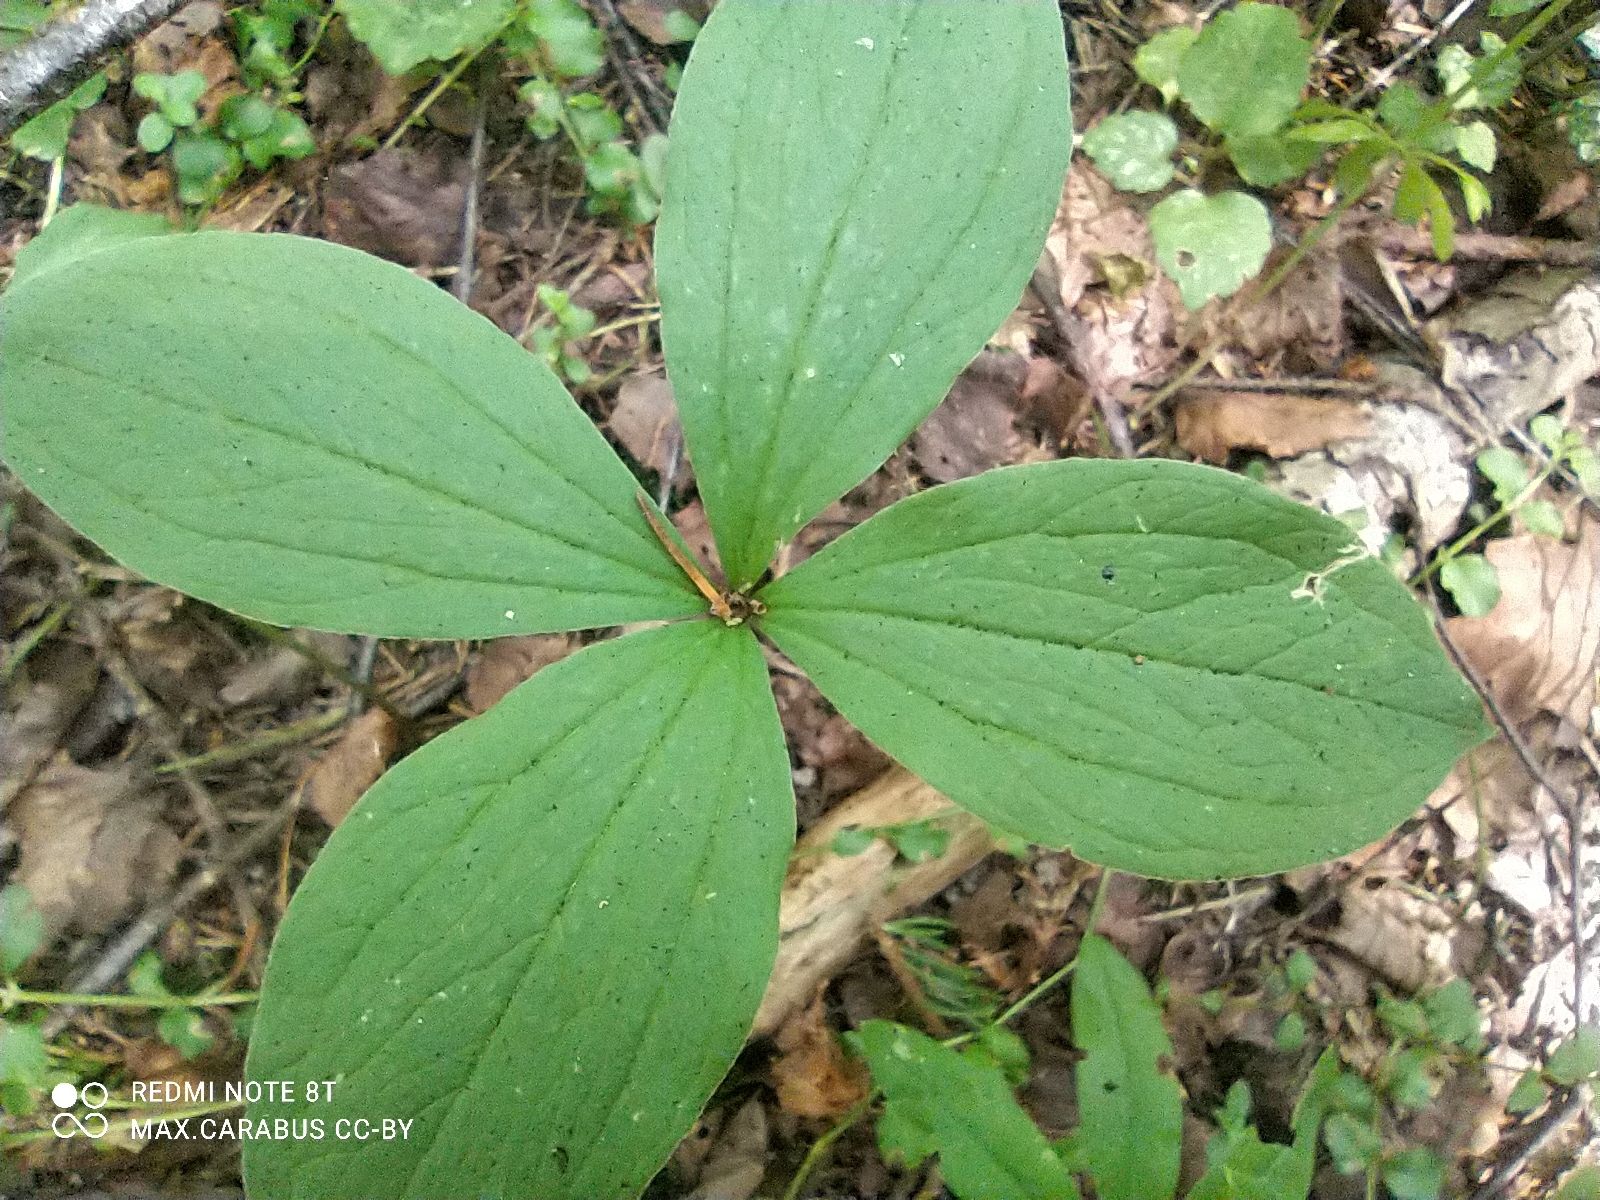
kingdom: Plantae
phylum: Tracheophyta
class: Liliopsida
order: Liliales
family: Melanthiaceae
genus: Paris
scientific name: Paris quadrifolia
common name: Herb-paris
